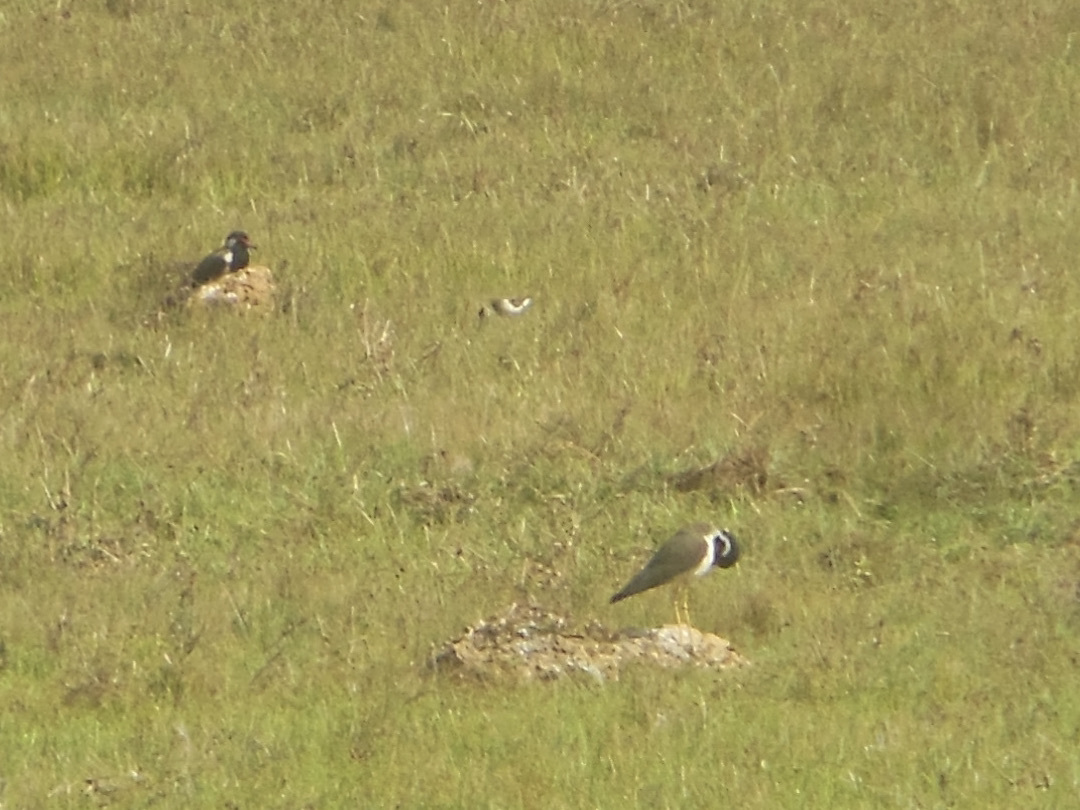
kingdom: Animalia
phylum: Chordata
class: Aves
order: Charadriiformes
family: Charadriidae
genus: Vanellus
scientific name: Vanellus indicus
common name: Red-wattled lapwing
